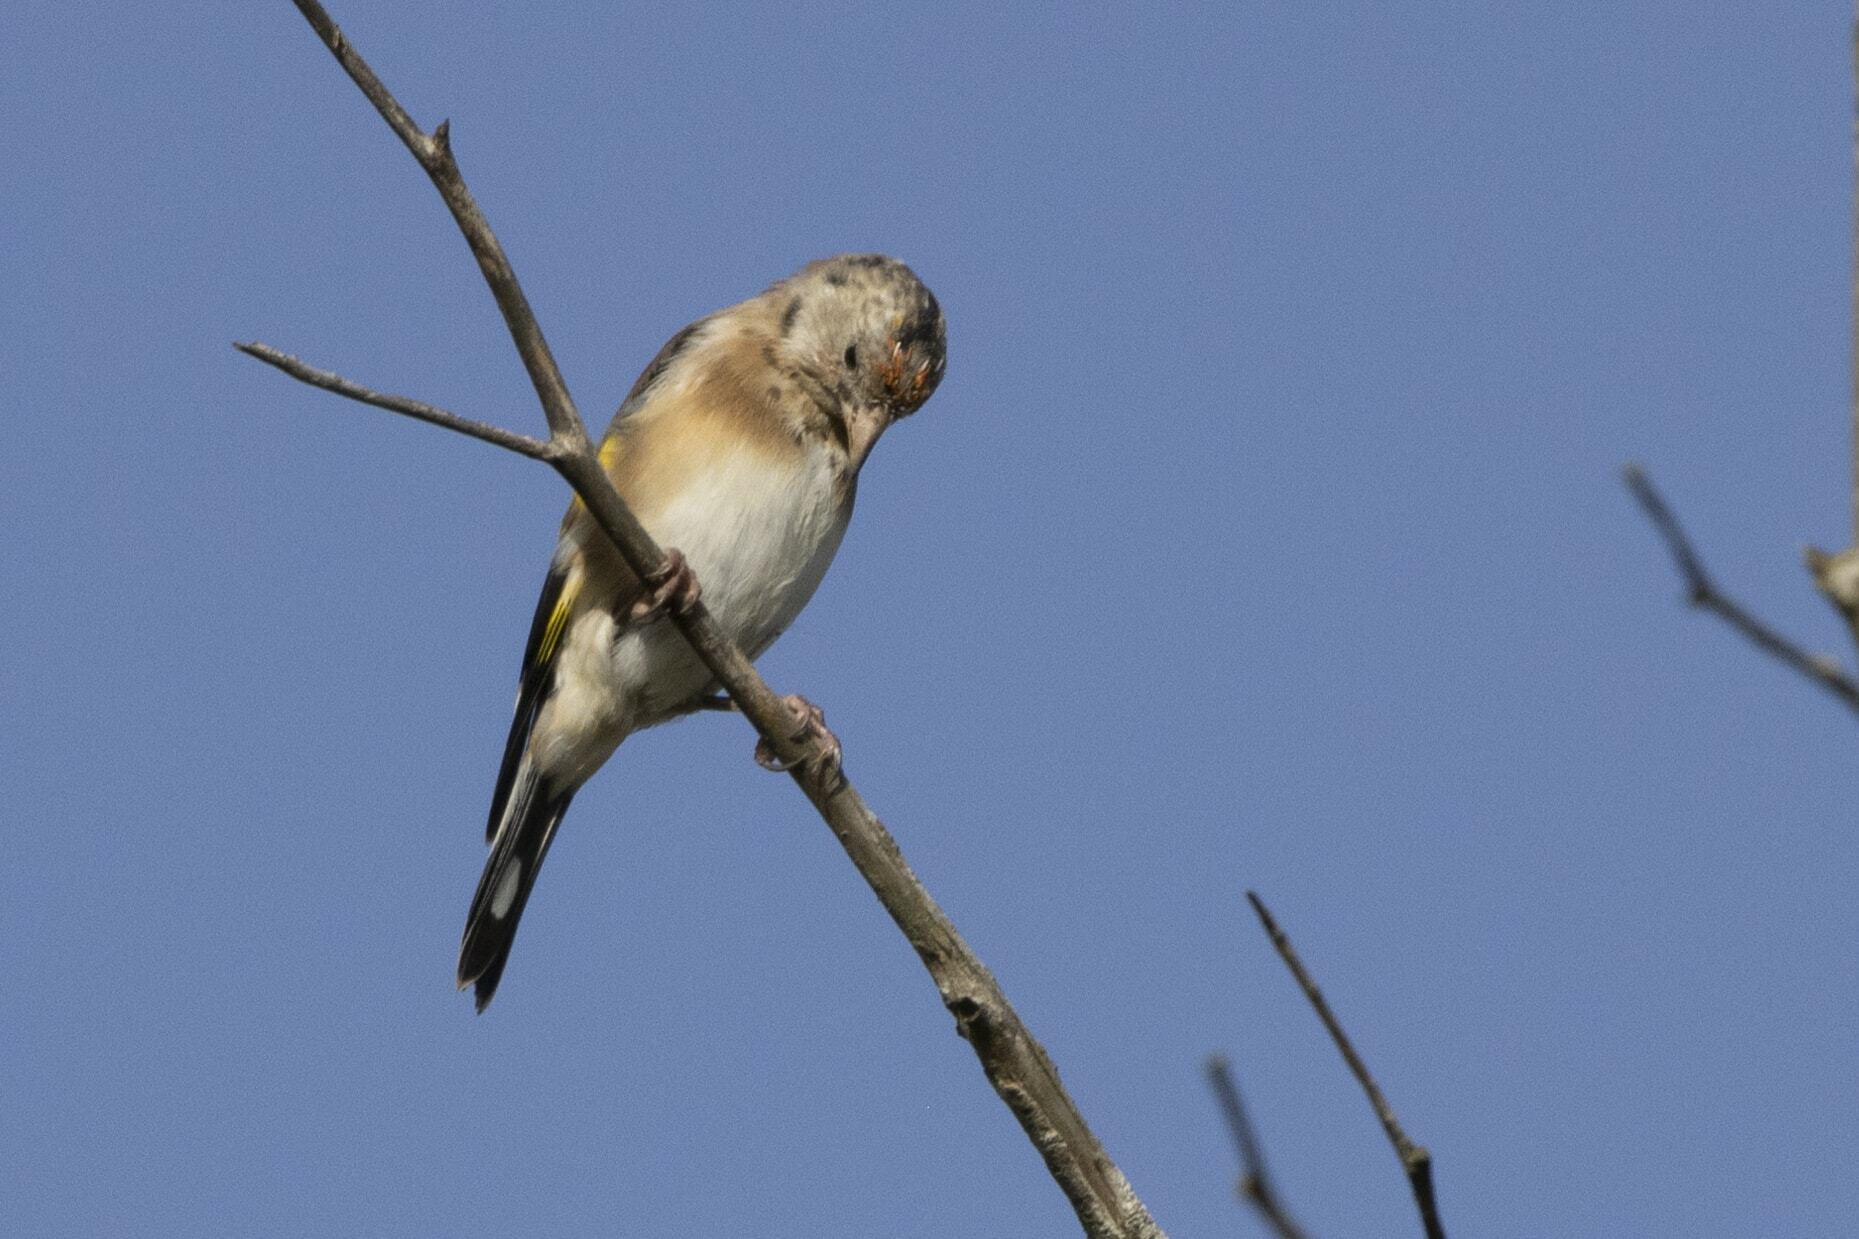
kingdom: Animalia
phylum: Chordata
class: Aves
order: Passeriformes
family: Fringillidae
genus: Carduelis
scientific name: Carduelis carduelis
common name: European goldfinch
